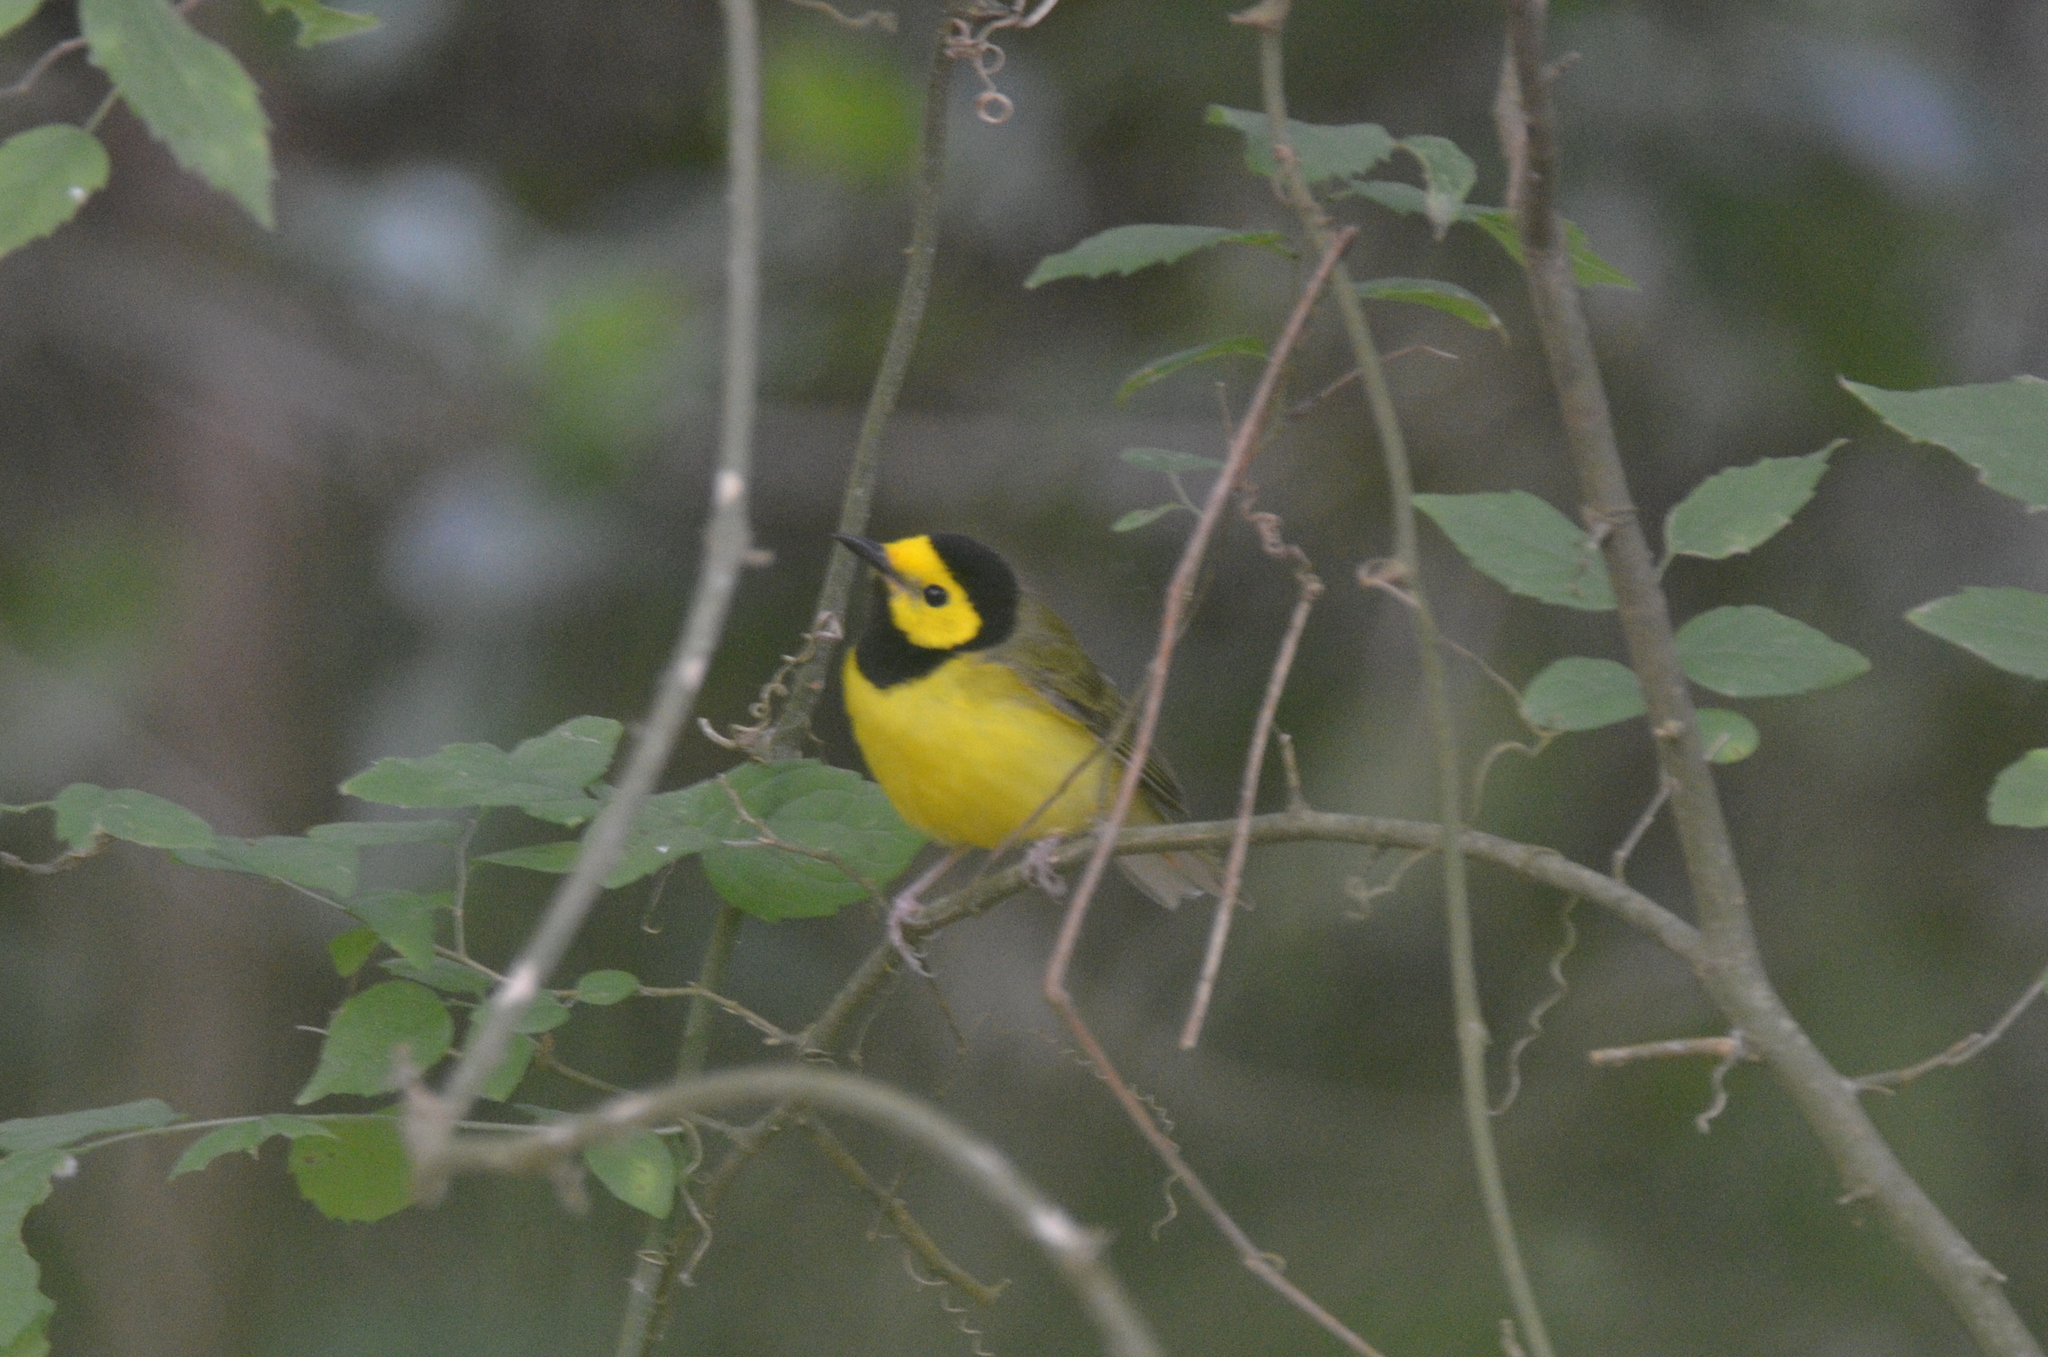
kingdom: Animalia
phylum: Chordata
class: Aves
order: Passeriformes
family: Parulidae
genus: Setophaga
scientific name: Setophaga citrina
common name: Hooded warbler
